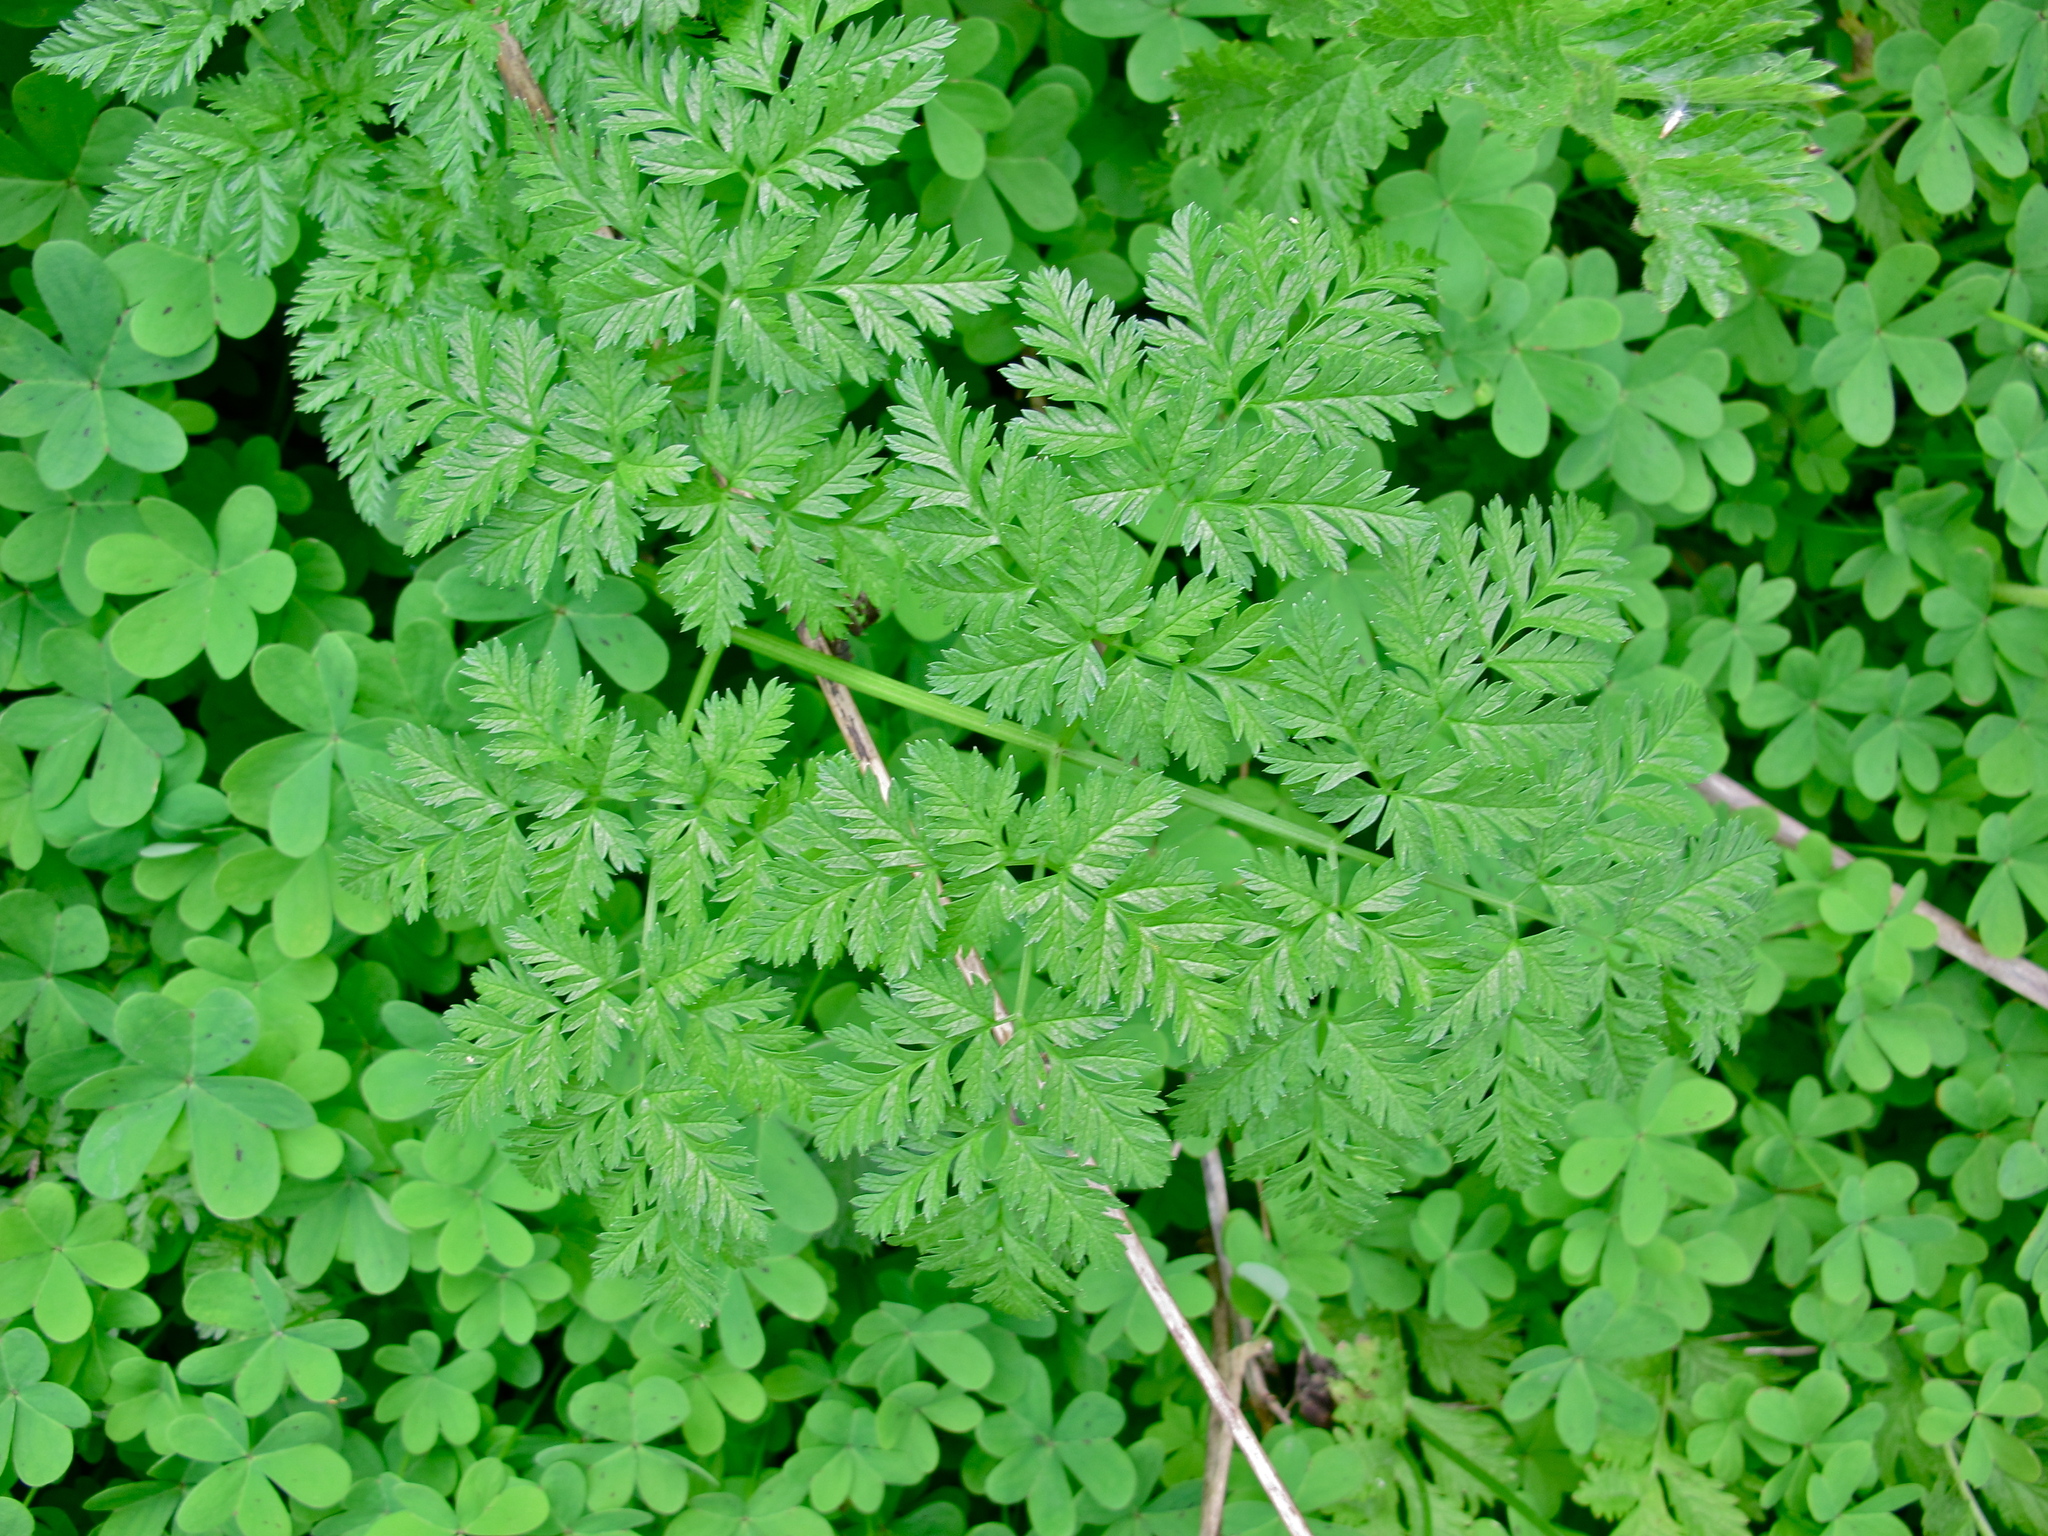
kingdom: Plantae
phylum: Tracheophyta
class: Magnoliopsida
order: Apiales
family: Apiaceae
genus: Conium
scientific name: Conium maculatum
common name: Hemlock
